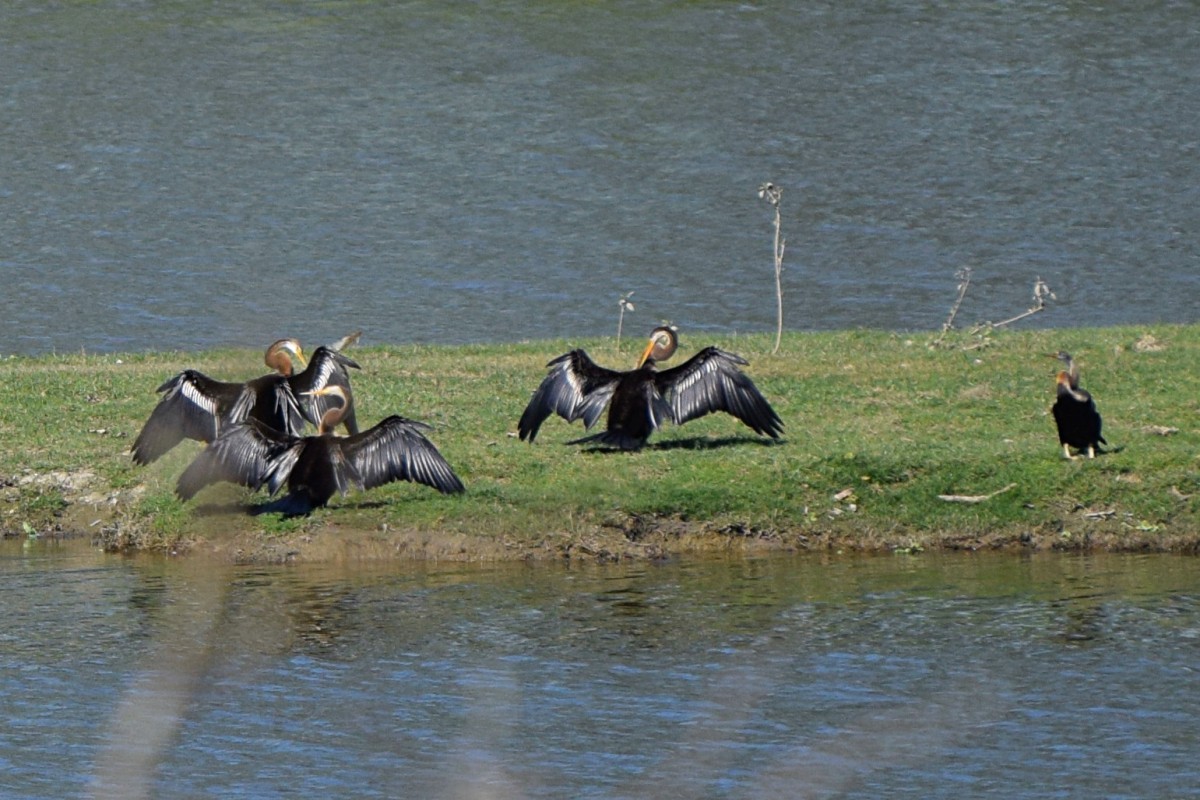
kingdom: Animalia
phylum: Chordata
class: Aves
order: Suliformes
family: Anhingidae
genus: Anhinga
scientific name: Anhinga melanogaster
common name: Oriental darter
